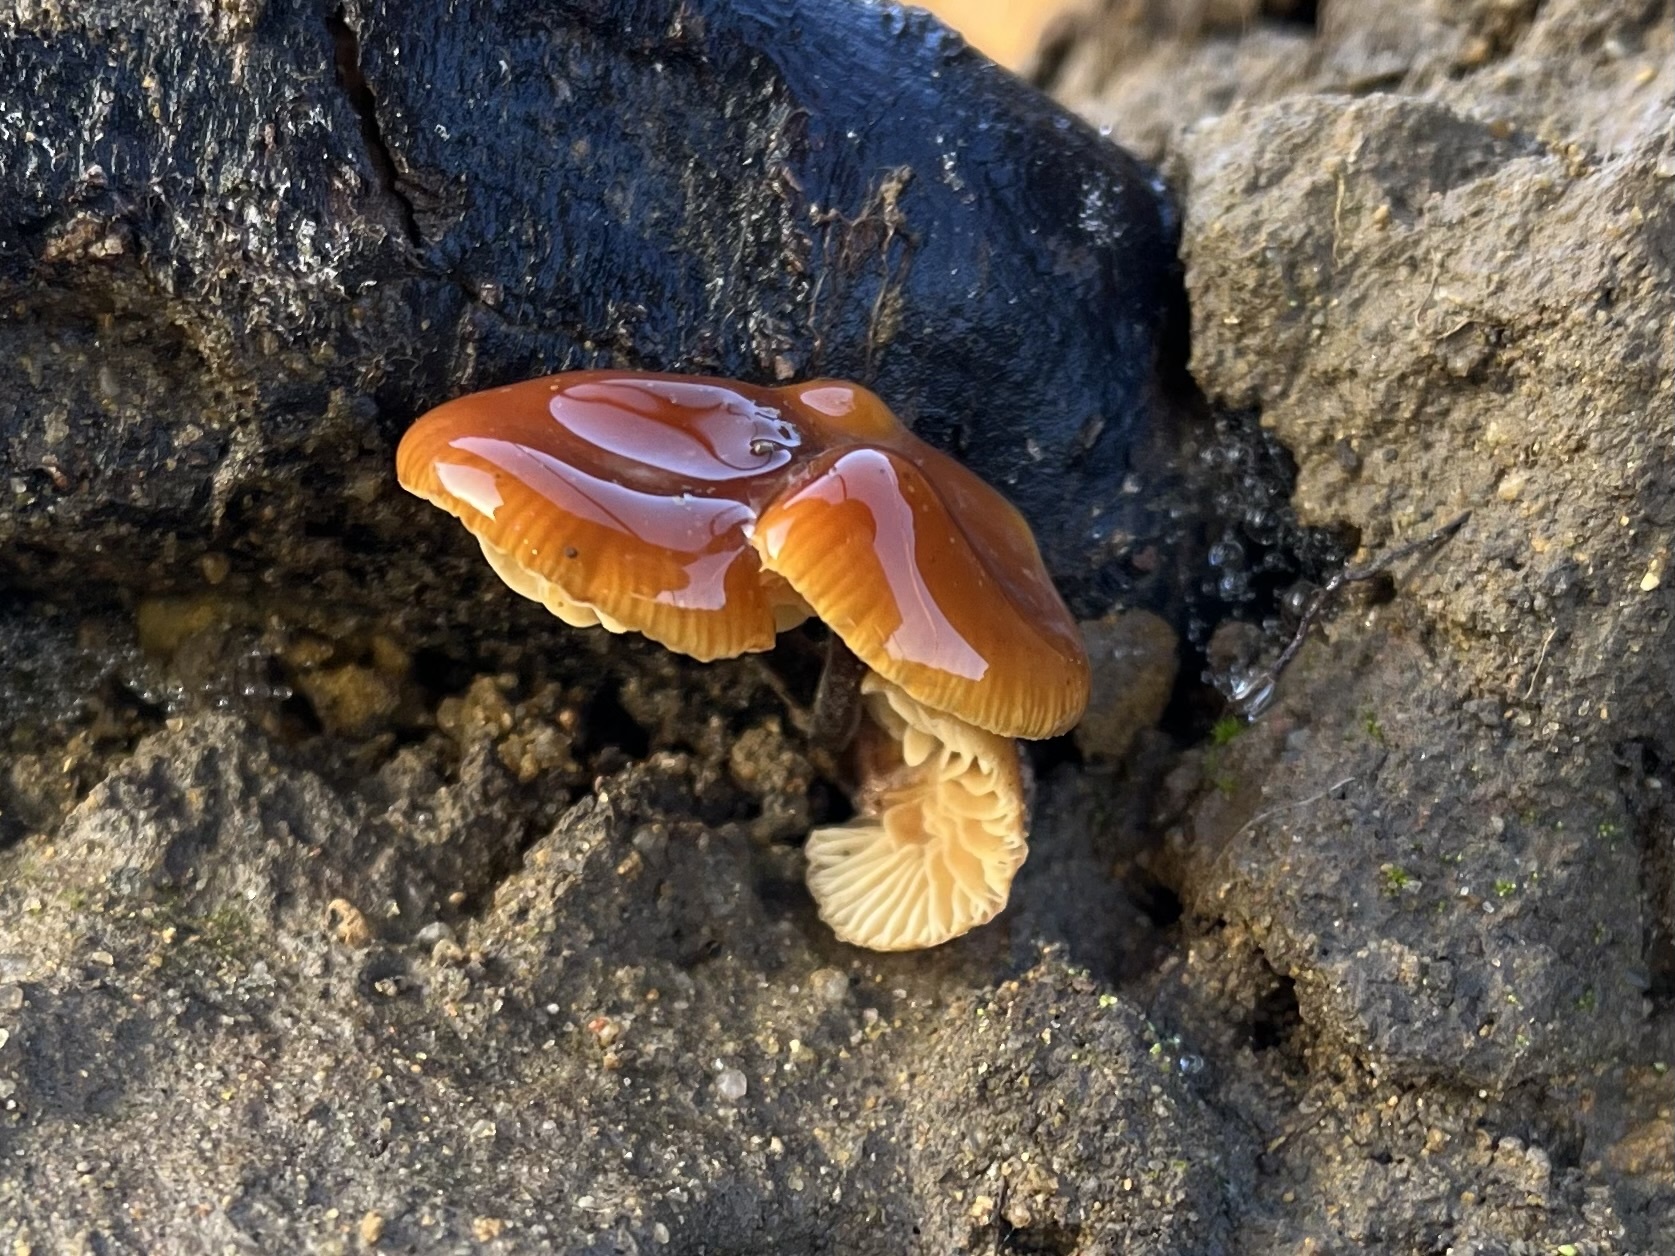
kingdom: Fungi
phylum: Basidiomycota
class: Agaricomycetes
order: Agaricales
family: Physalacriaceae
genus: Flammulina
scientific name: Flammulina
